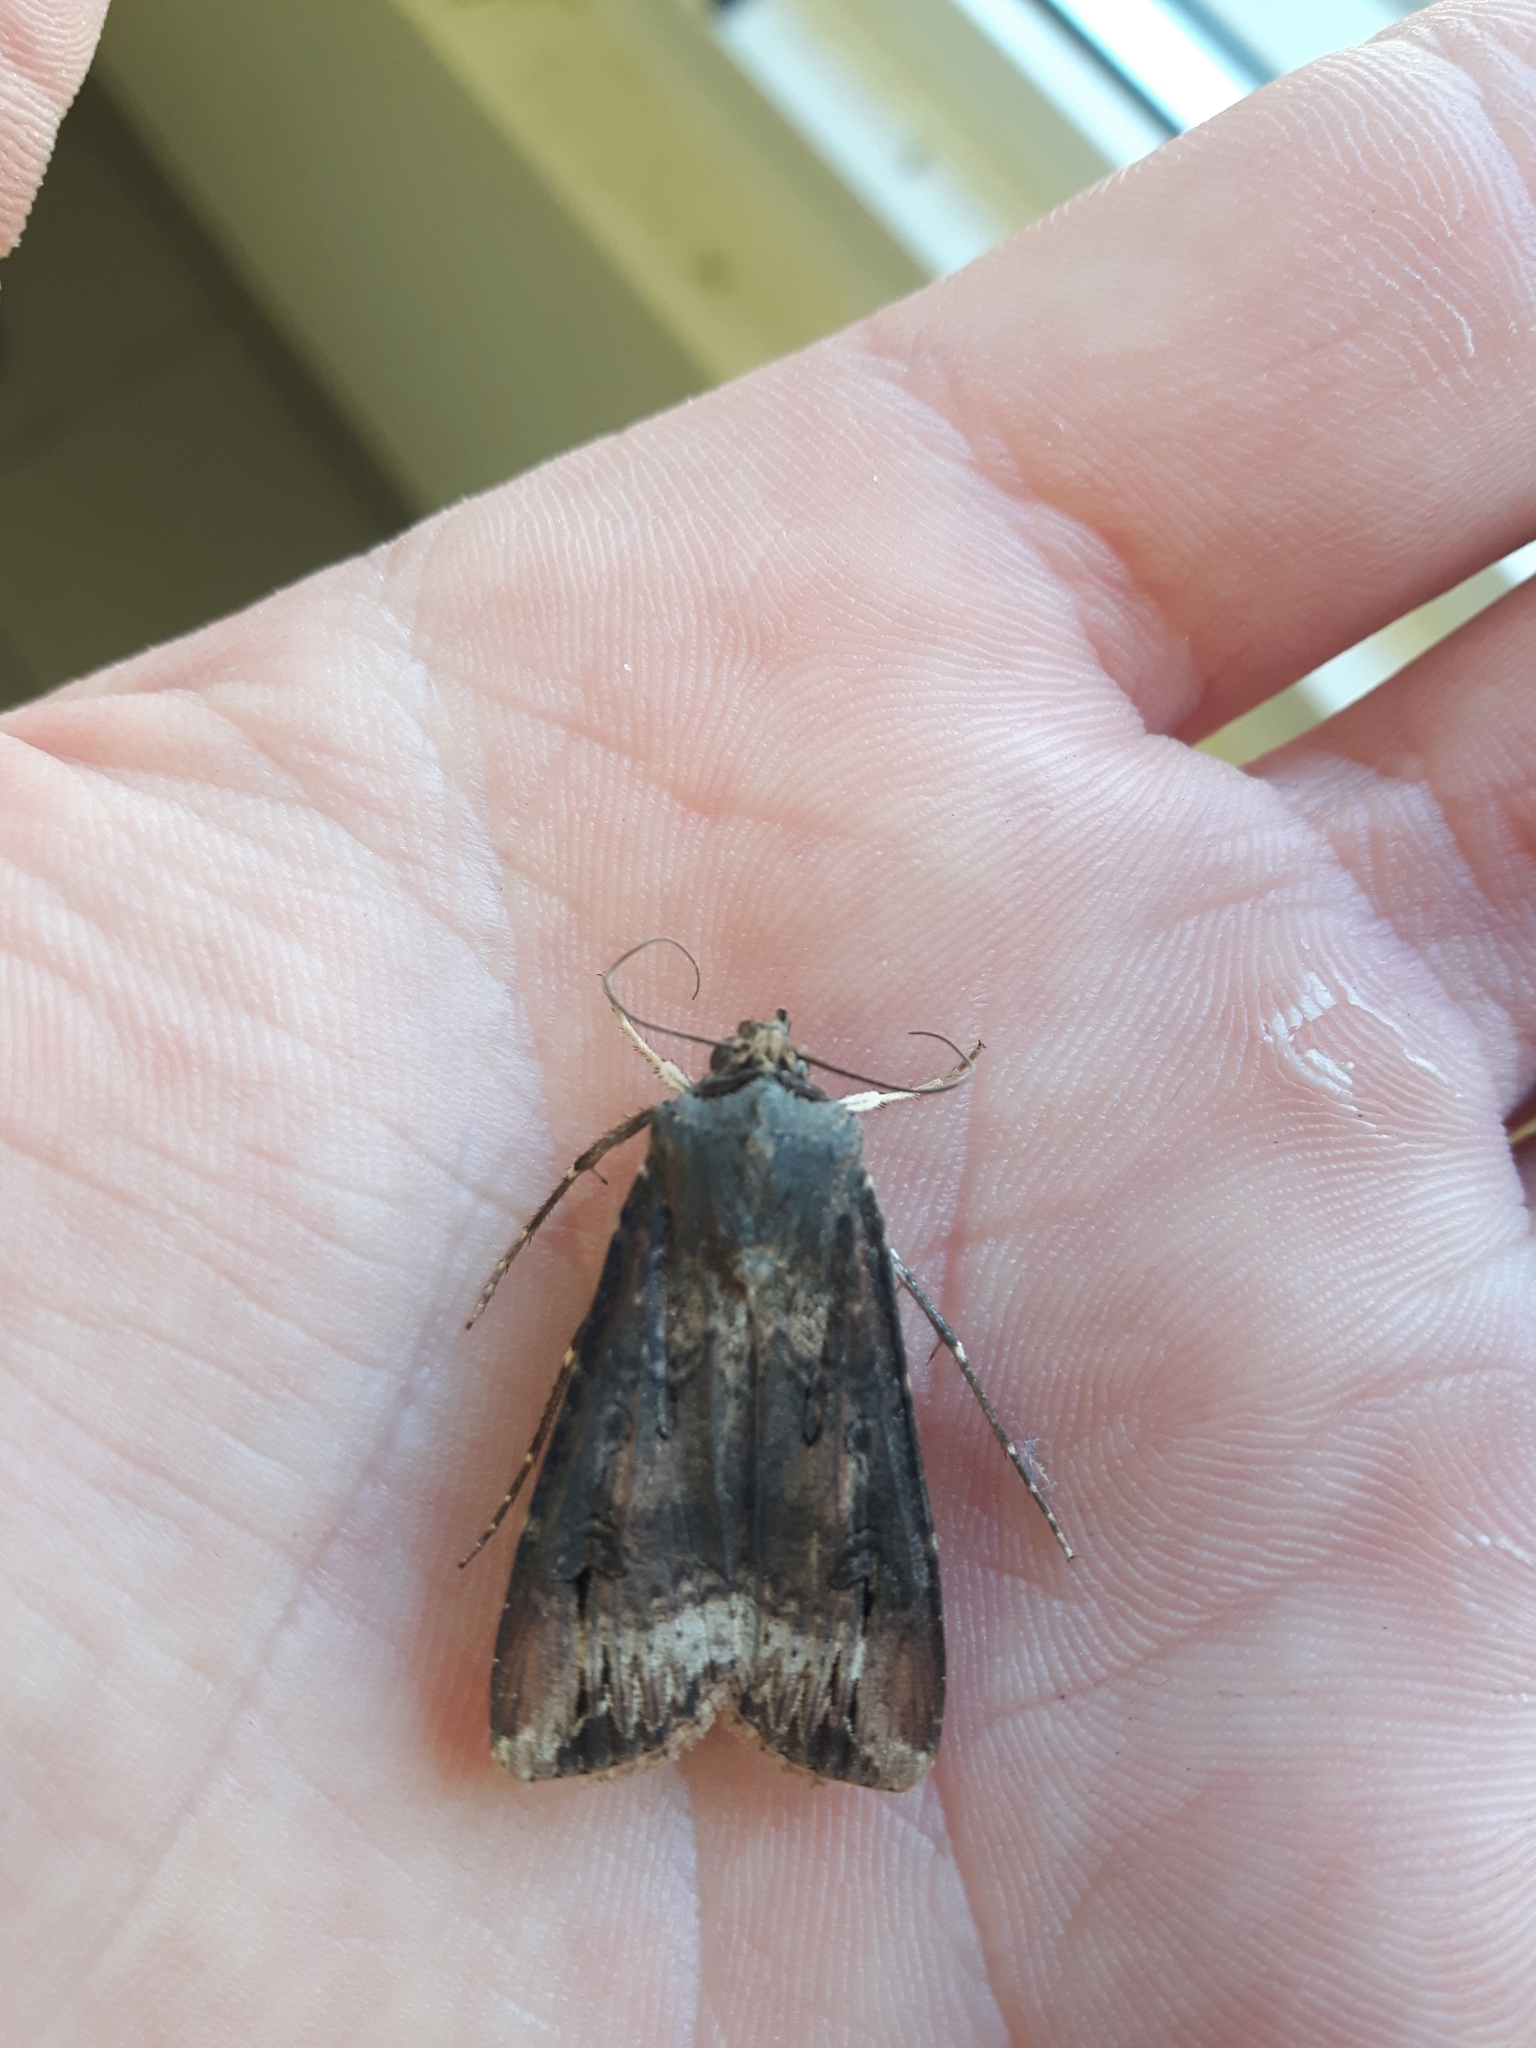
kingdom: Animalia
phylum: Arthropoda
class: Insecta
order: Lepidoptera
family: Noctuidae
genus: Agrotis
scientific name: Agrotis ipsilon
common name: Dark sword-grass
